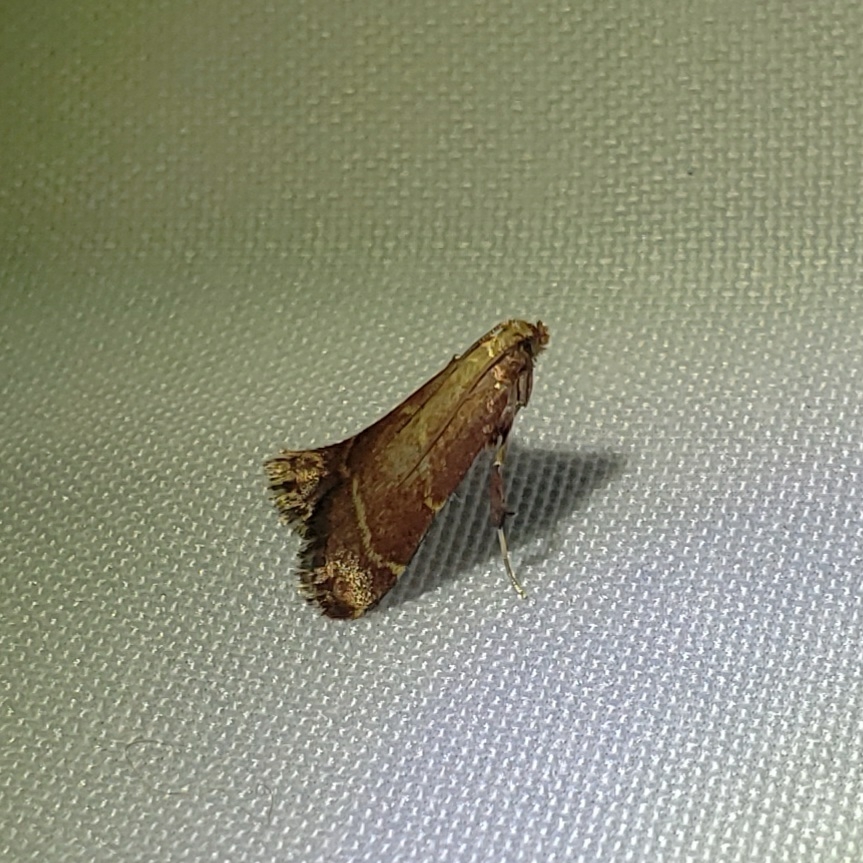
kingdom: Animalia
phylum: Arthropoda
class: Insecta
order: Lepidoptera
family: Pyralidae
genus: Arta
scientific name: Arta statalis
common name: Posturing arta moth
